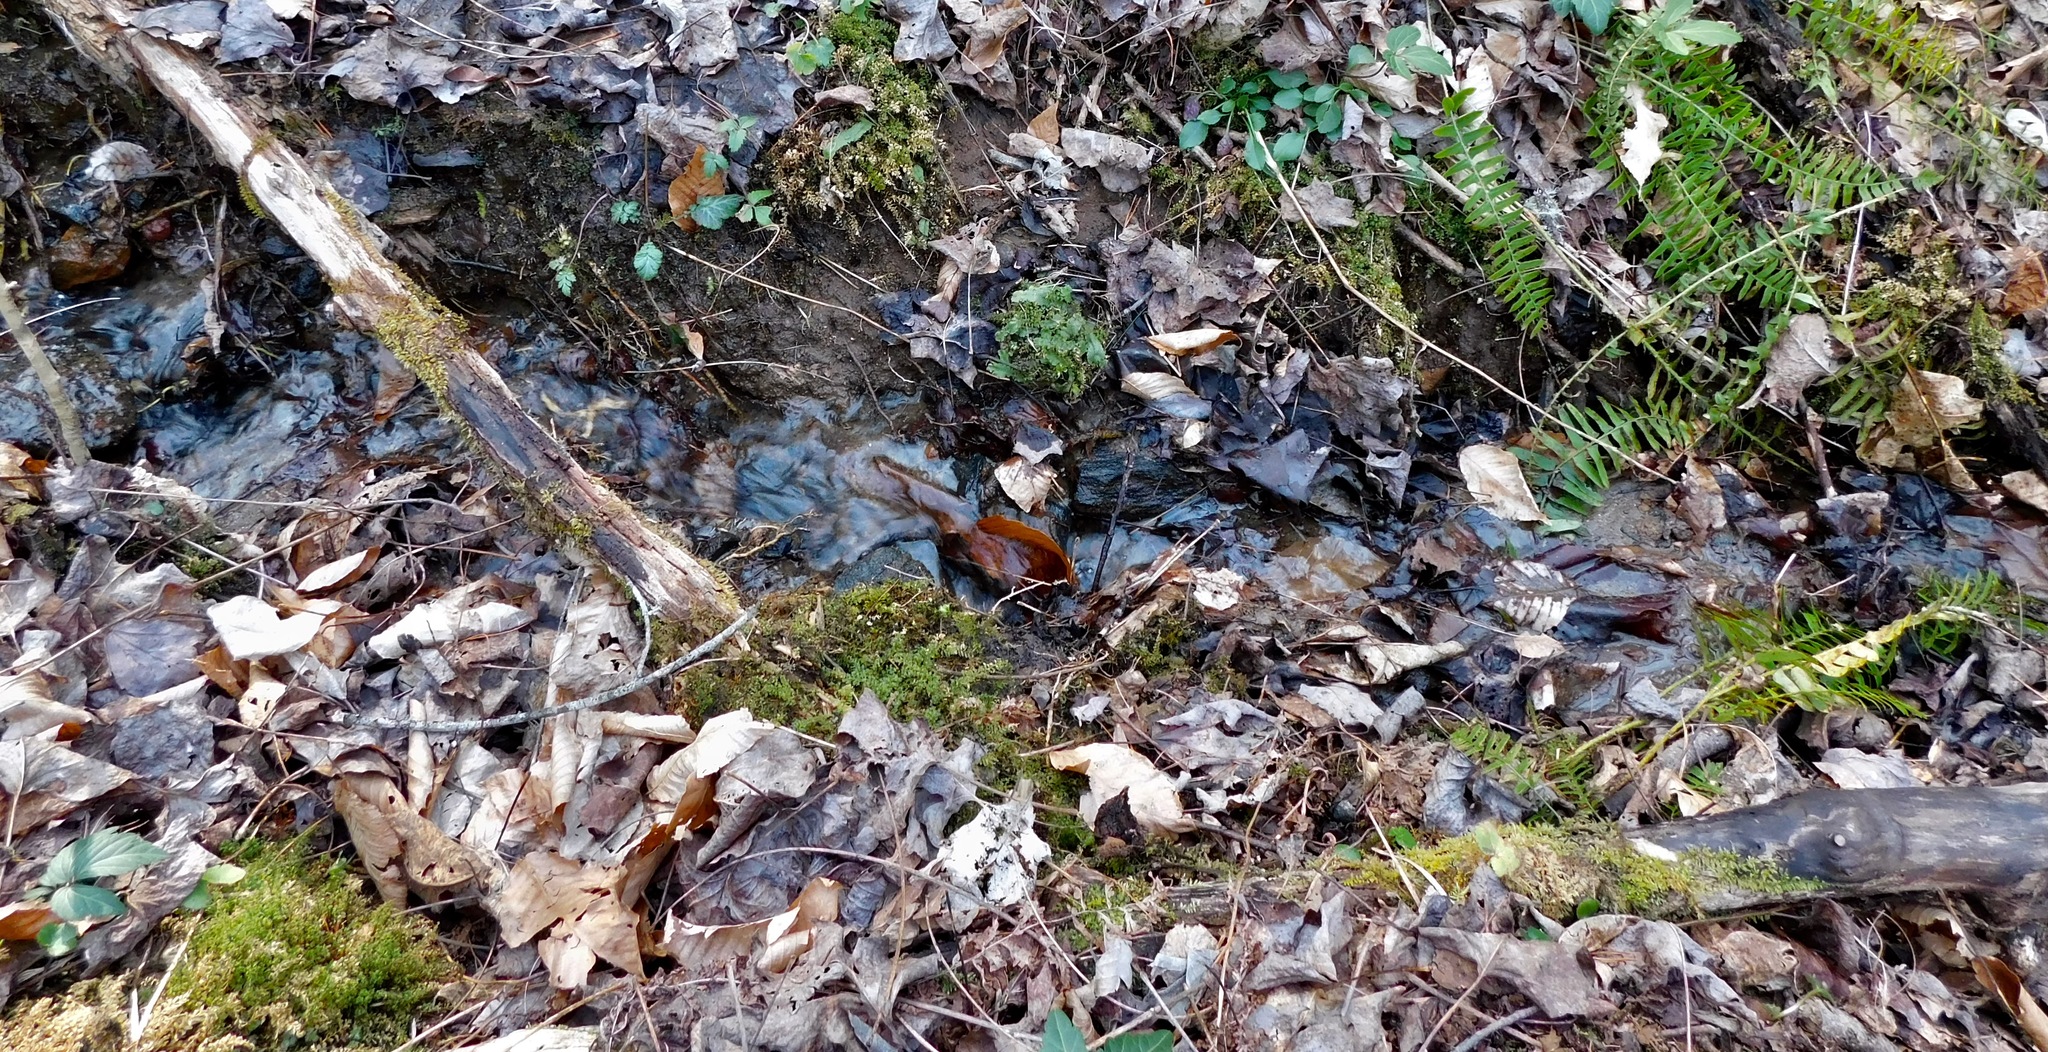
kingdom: Plantae
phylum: Marchantiophyta
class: Marchantiopsida
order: Marchantiales
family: Conocephalaceae
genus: Conocephalum
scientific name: Conocephalum salebrosum
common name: Cat-tongue liverwort
